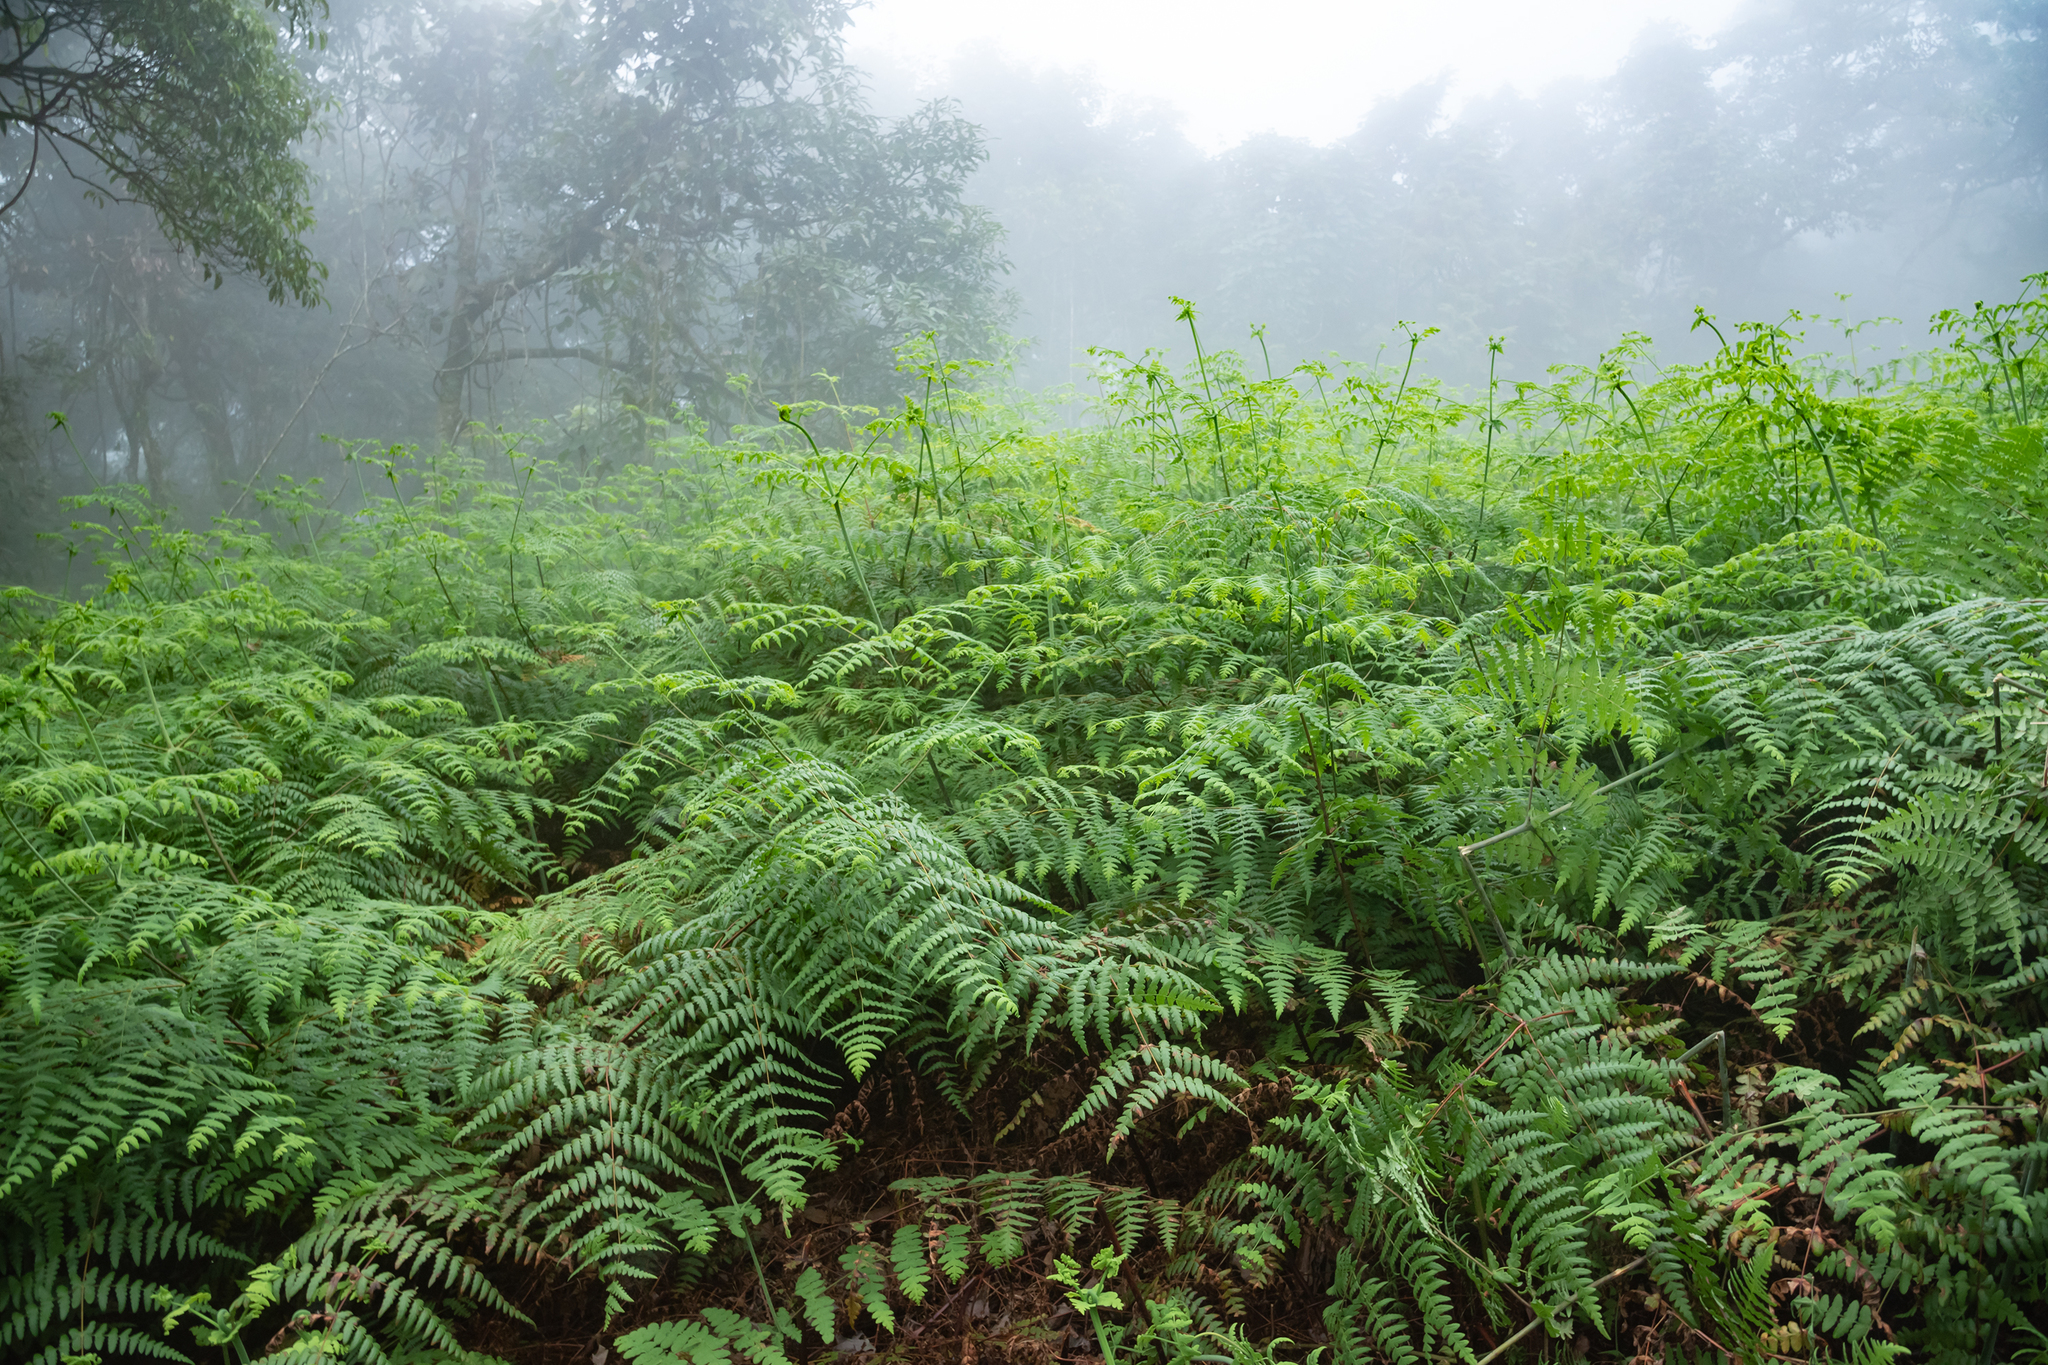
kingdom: Plantae
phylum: Tracheophyta
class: Polypodiopsida
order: Polypodiales
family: Dennstaedtiaceae
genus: Histiopteris
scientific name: Histiopteris incisa
